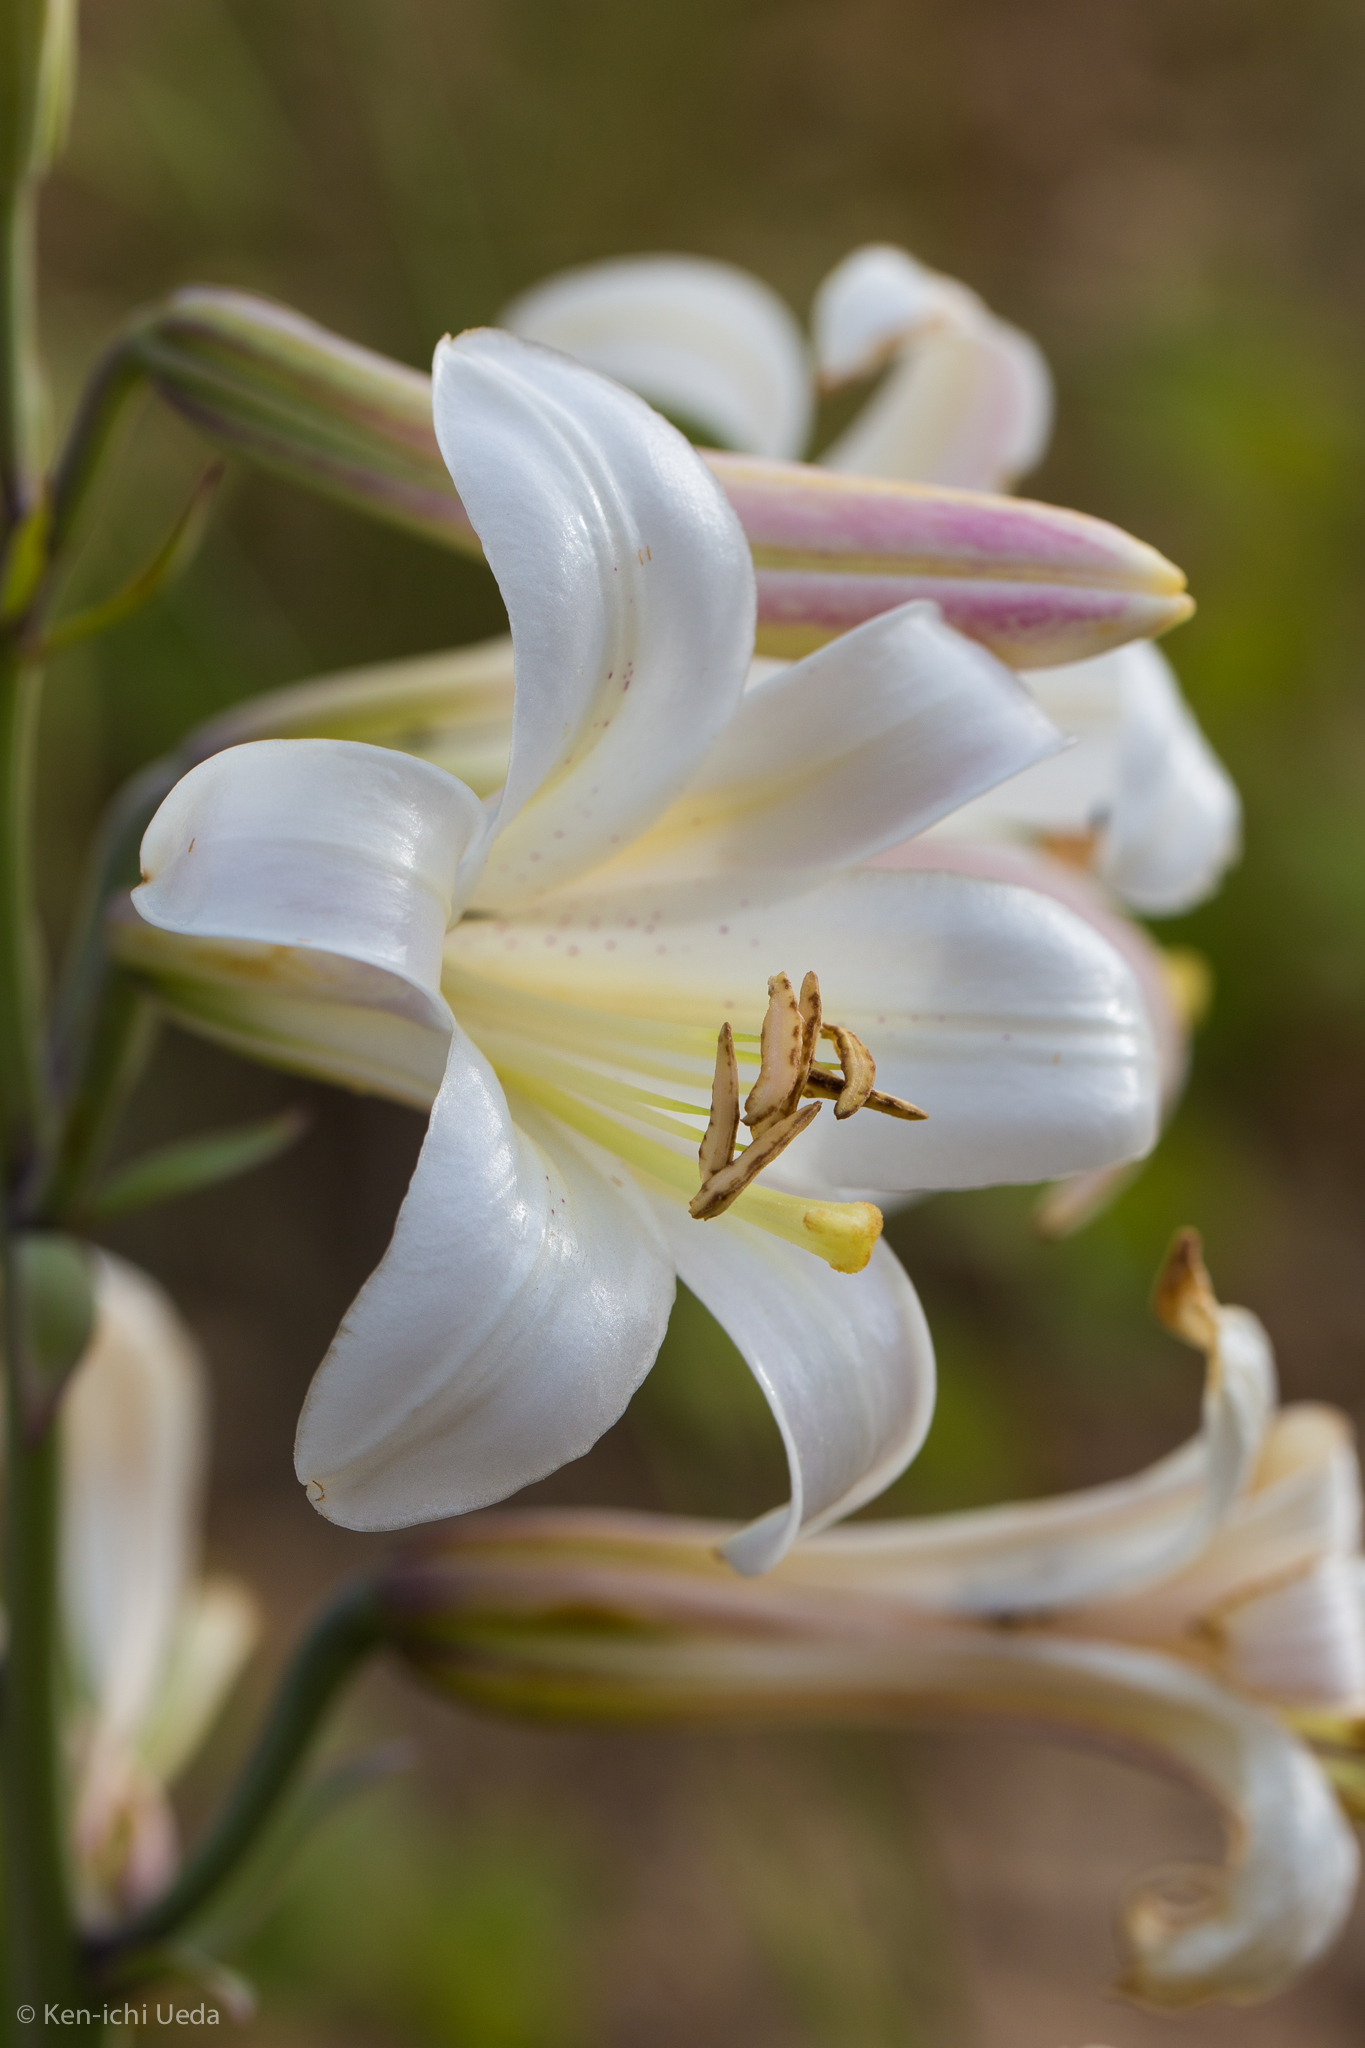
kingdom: Plantae
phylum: Tracheophyta
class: Liliopsida
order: Liliales
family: Liliaceae
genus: Lilium
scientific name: Lilium washingtonianum
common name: Washington lily
